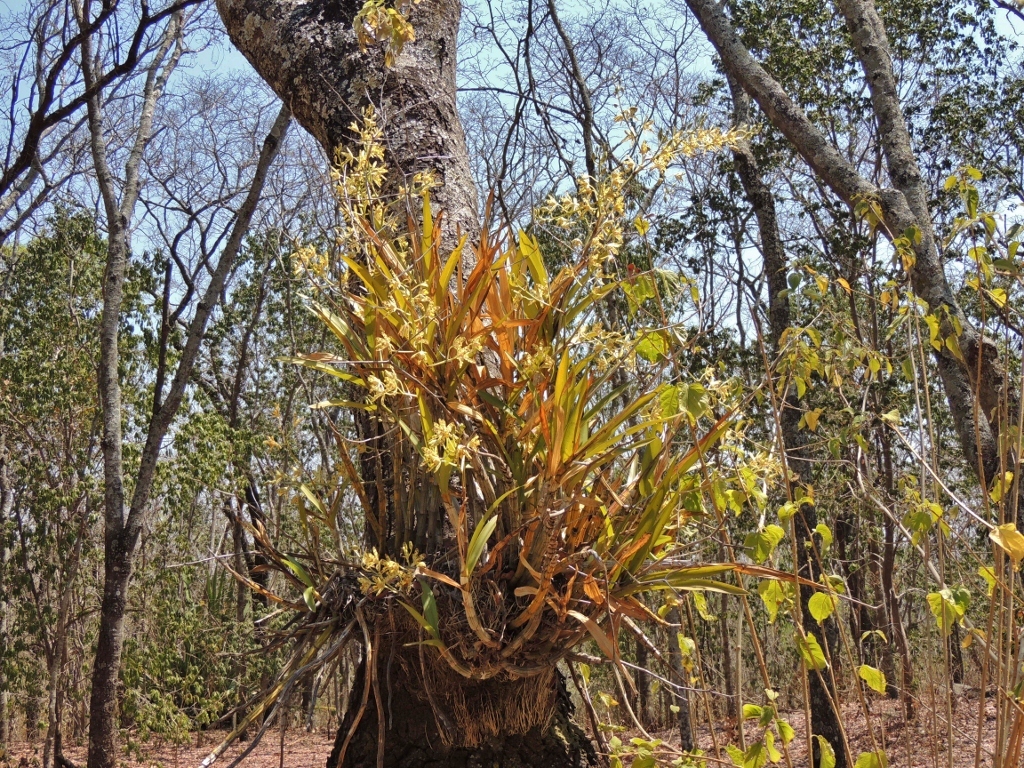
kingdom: Plantae
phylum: Tracheophyta
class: Liliopsida
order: Asparagales
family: Orchidaceae
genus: Ansellia
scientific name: Ansellia africana
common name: African ansellia
